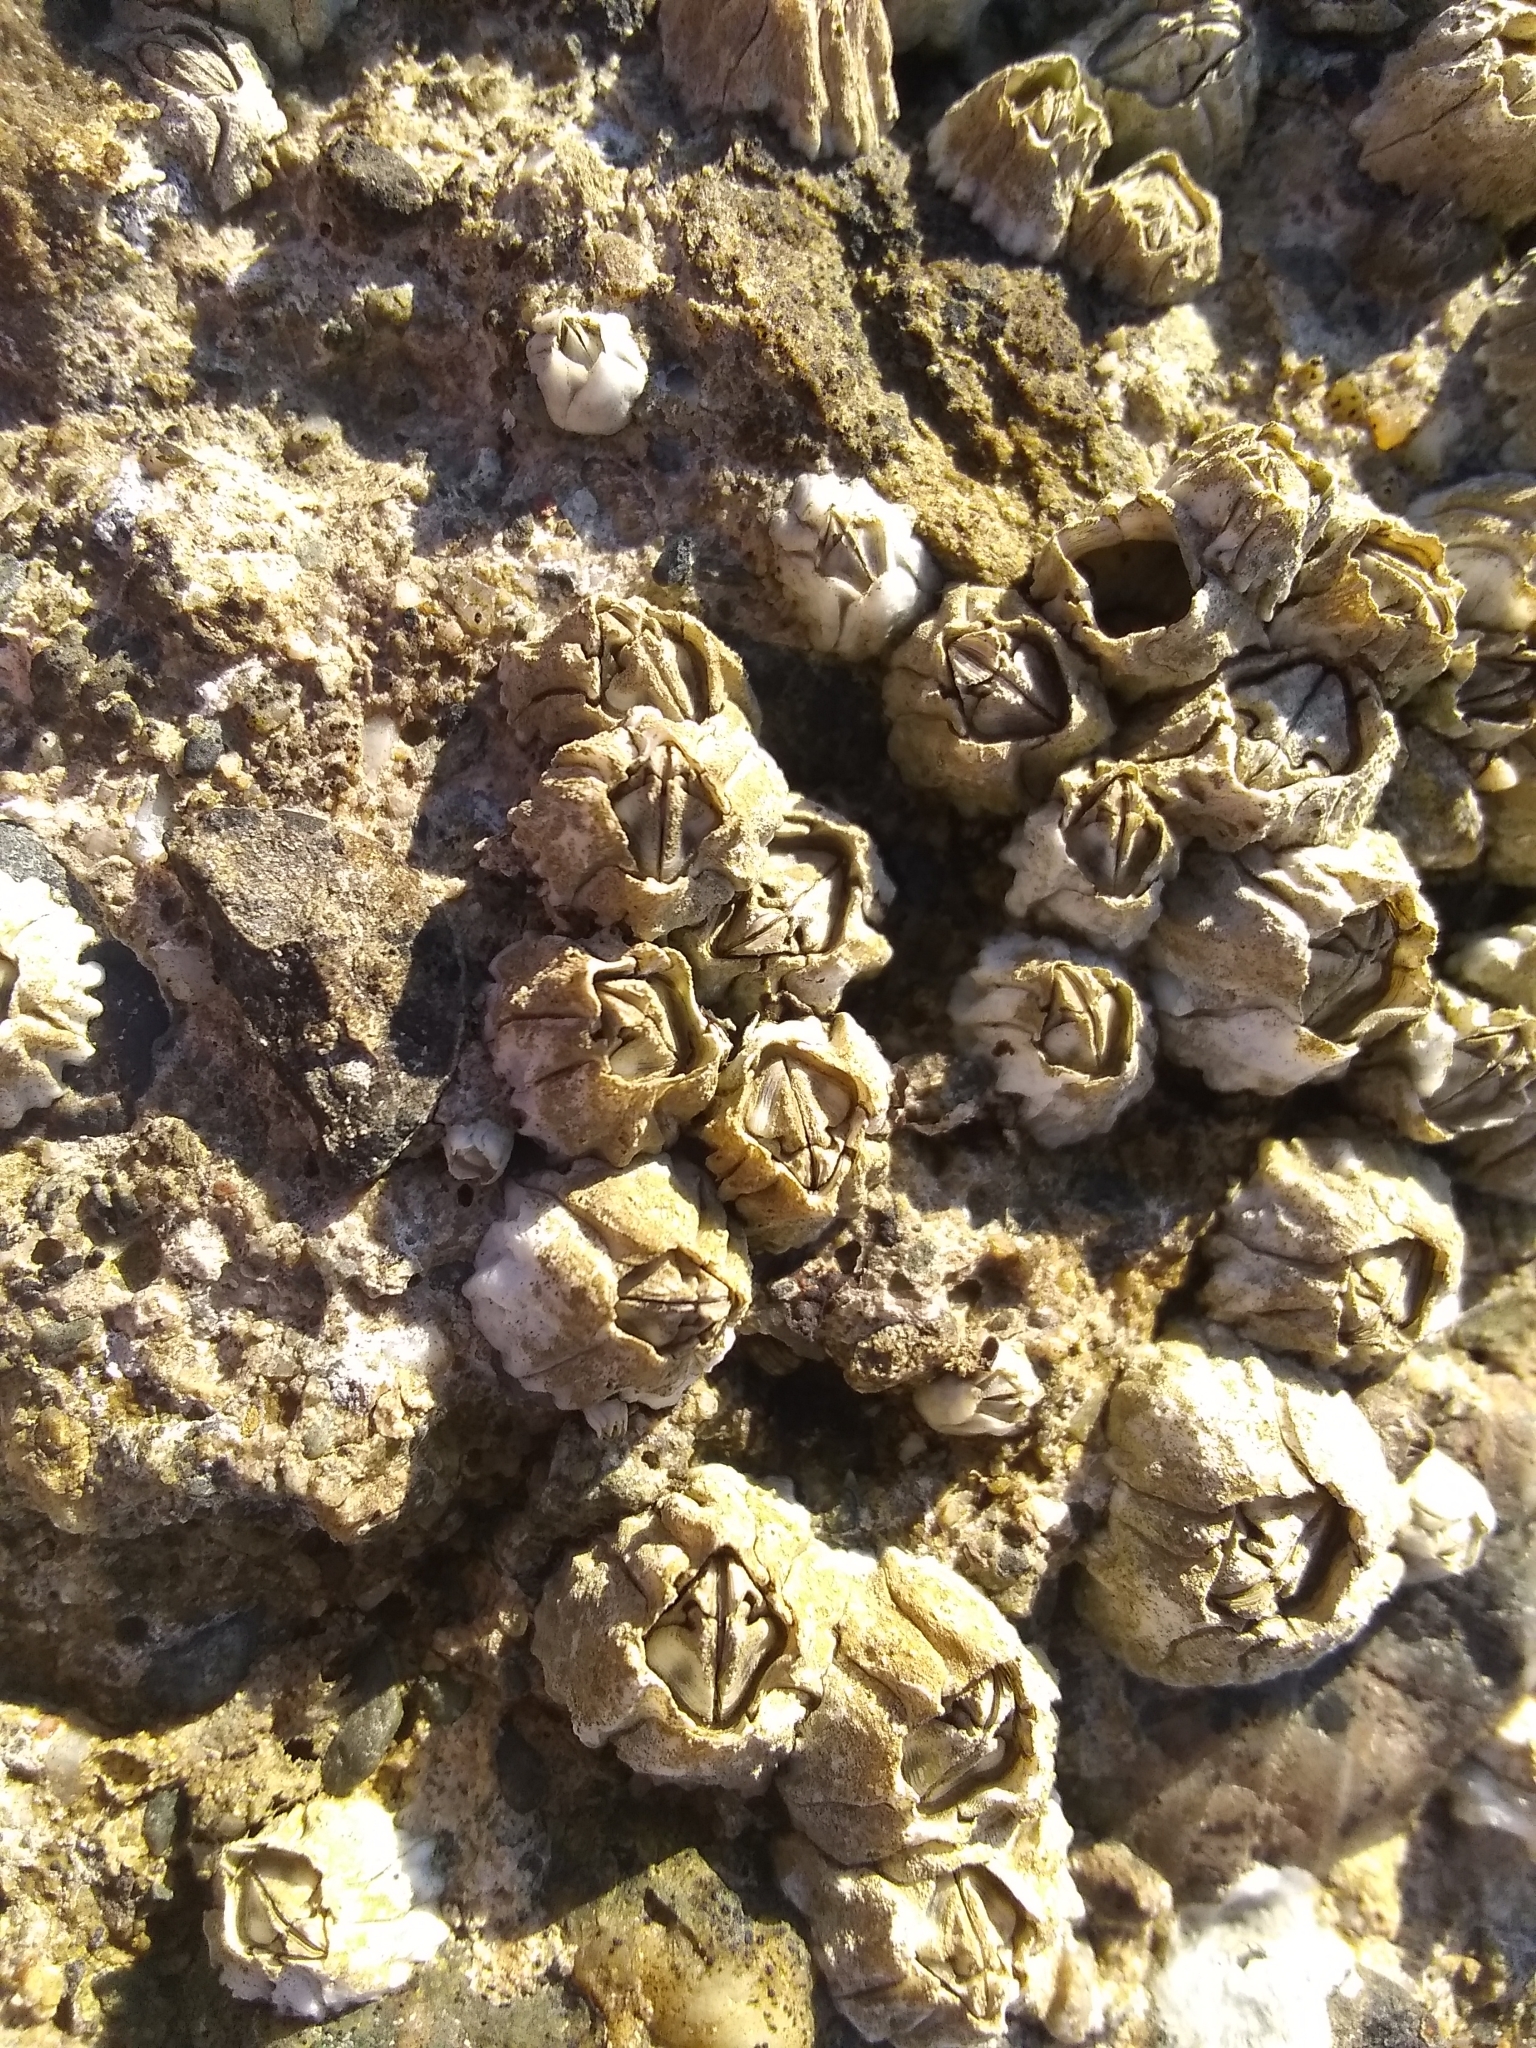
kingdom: Animalia
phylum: Arthropoda
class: Maxillopoda
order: Sessilia
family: Balanidae
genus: Balanus
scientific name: Balanus glandula
